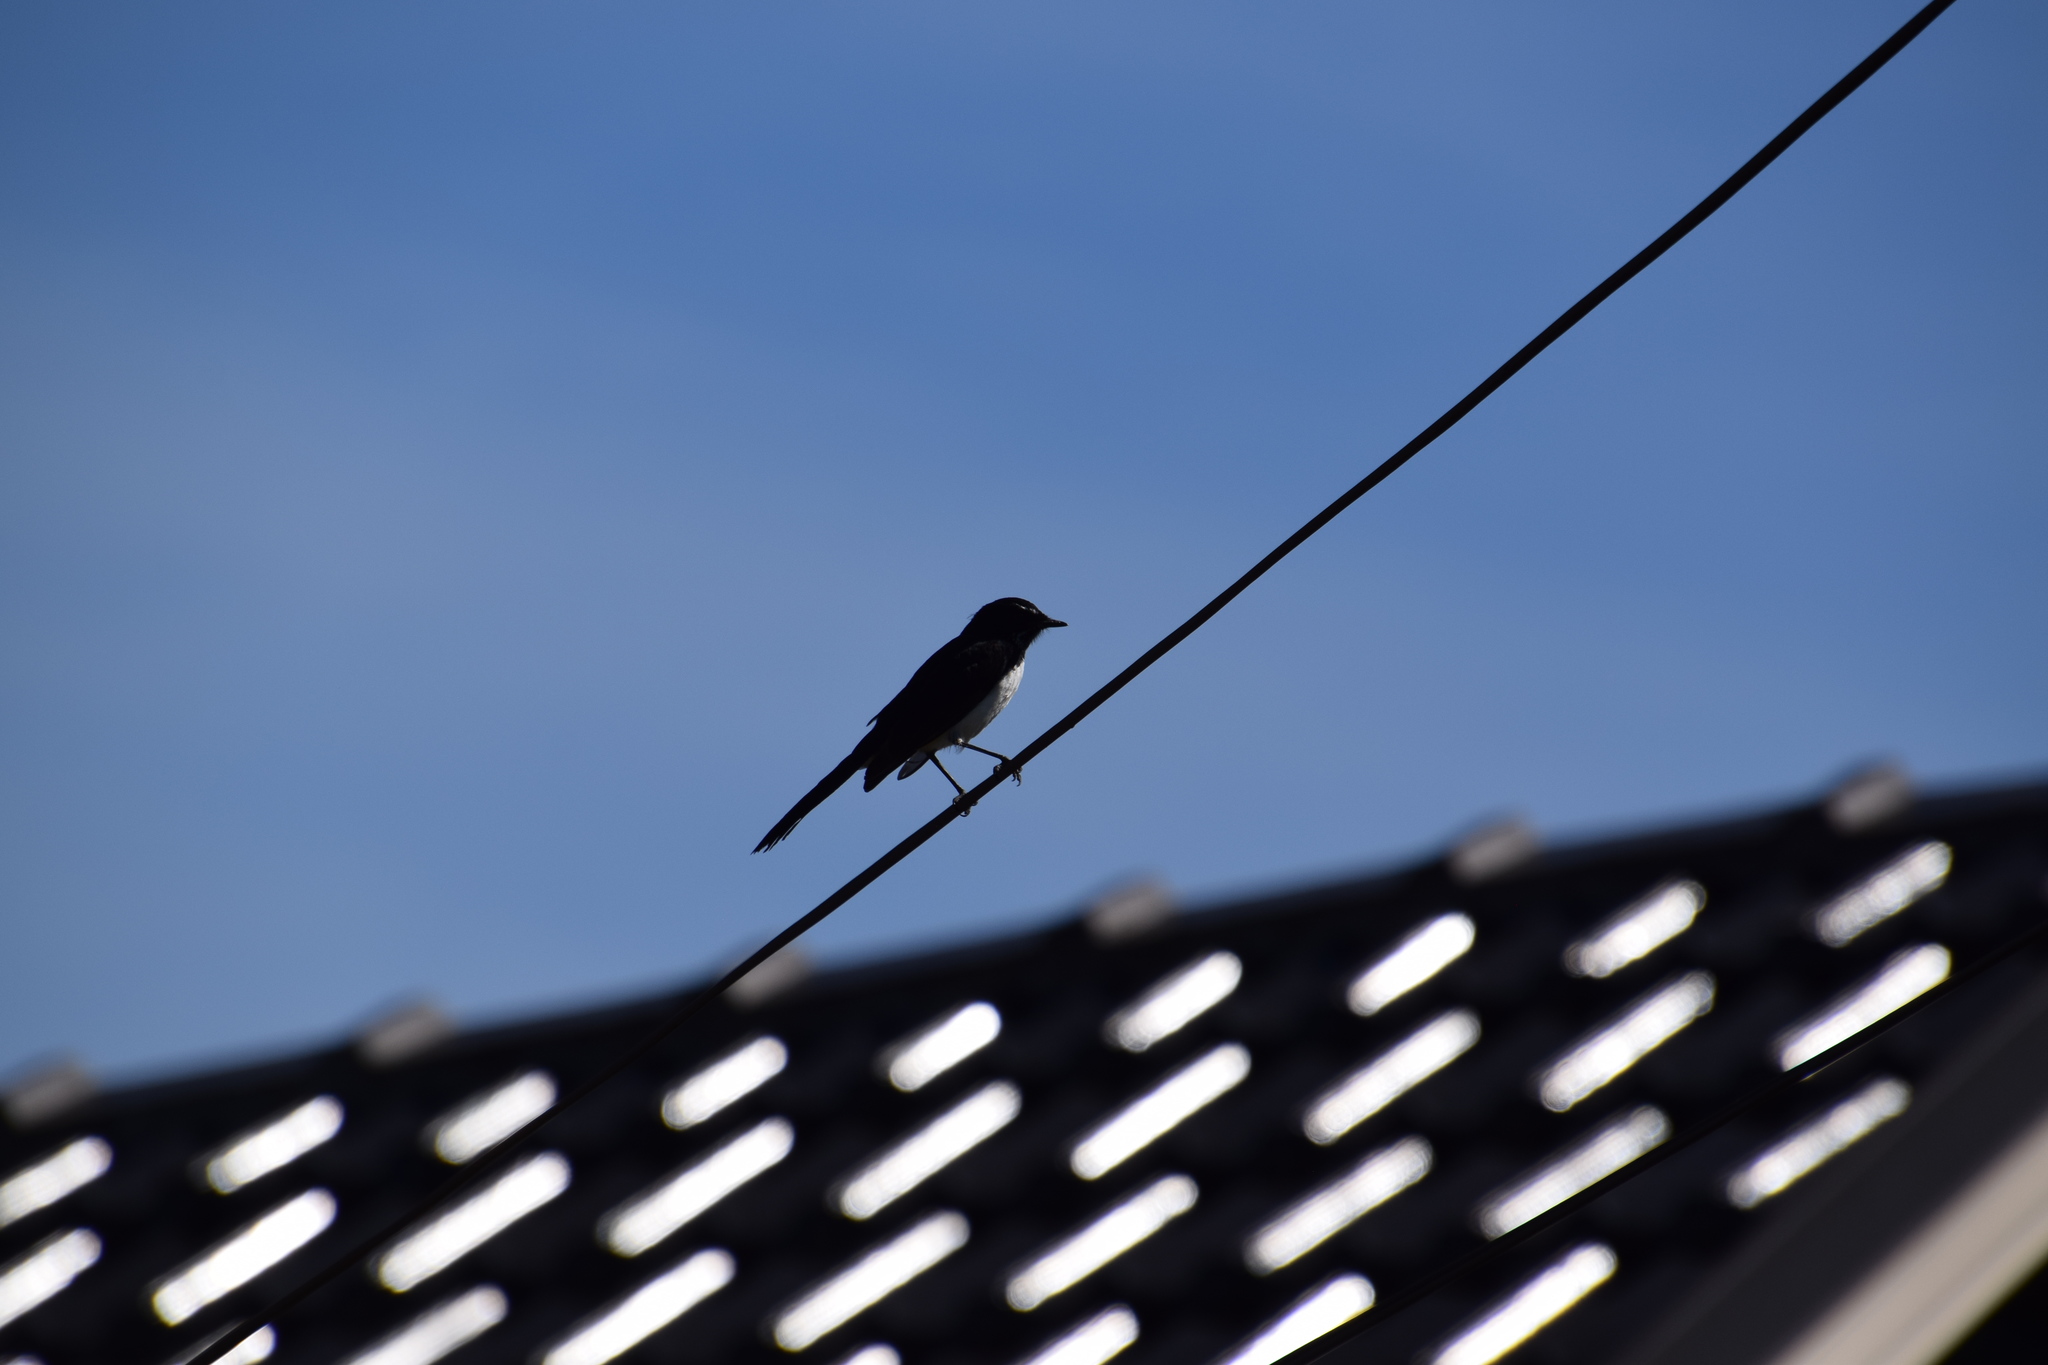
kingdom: Animalia
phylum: Chordata
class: Aves
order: Passeriformes
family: Rhipiduridae
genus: Rhipidura
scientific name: Rhipidura leucophrys
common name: Willie wagtail
